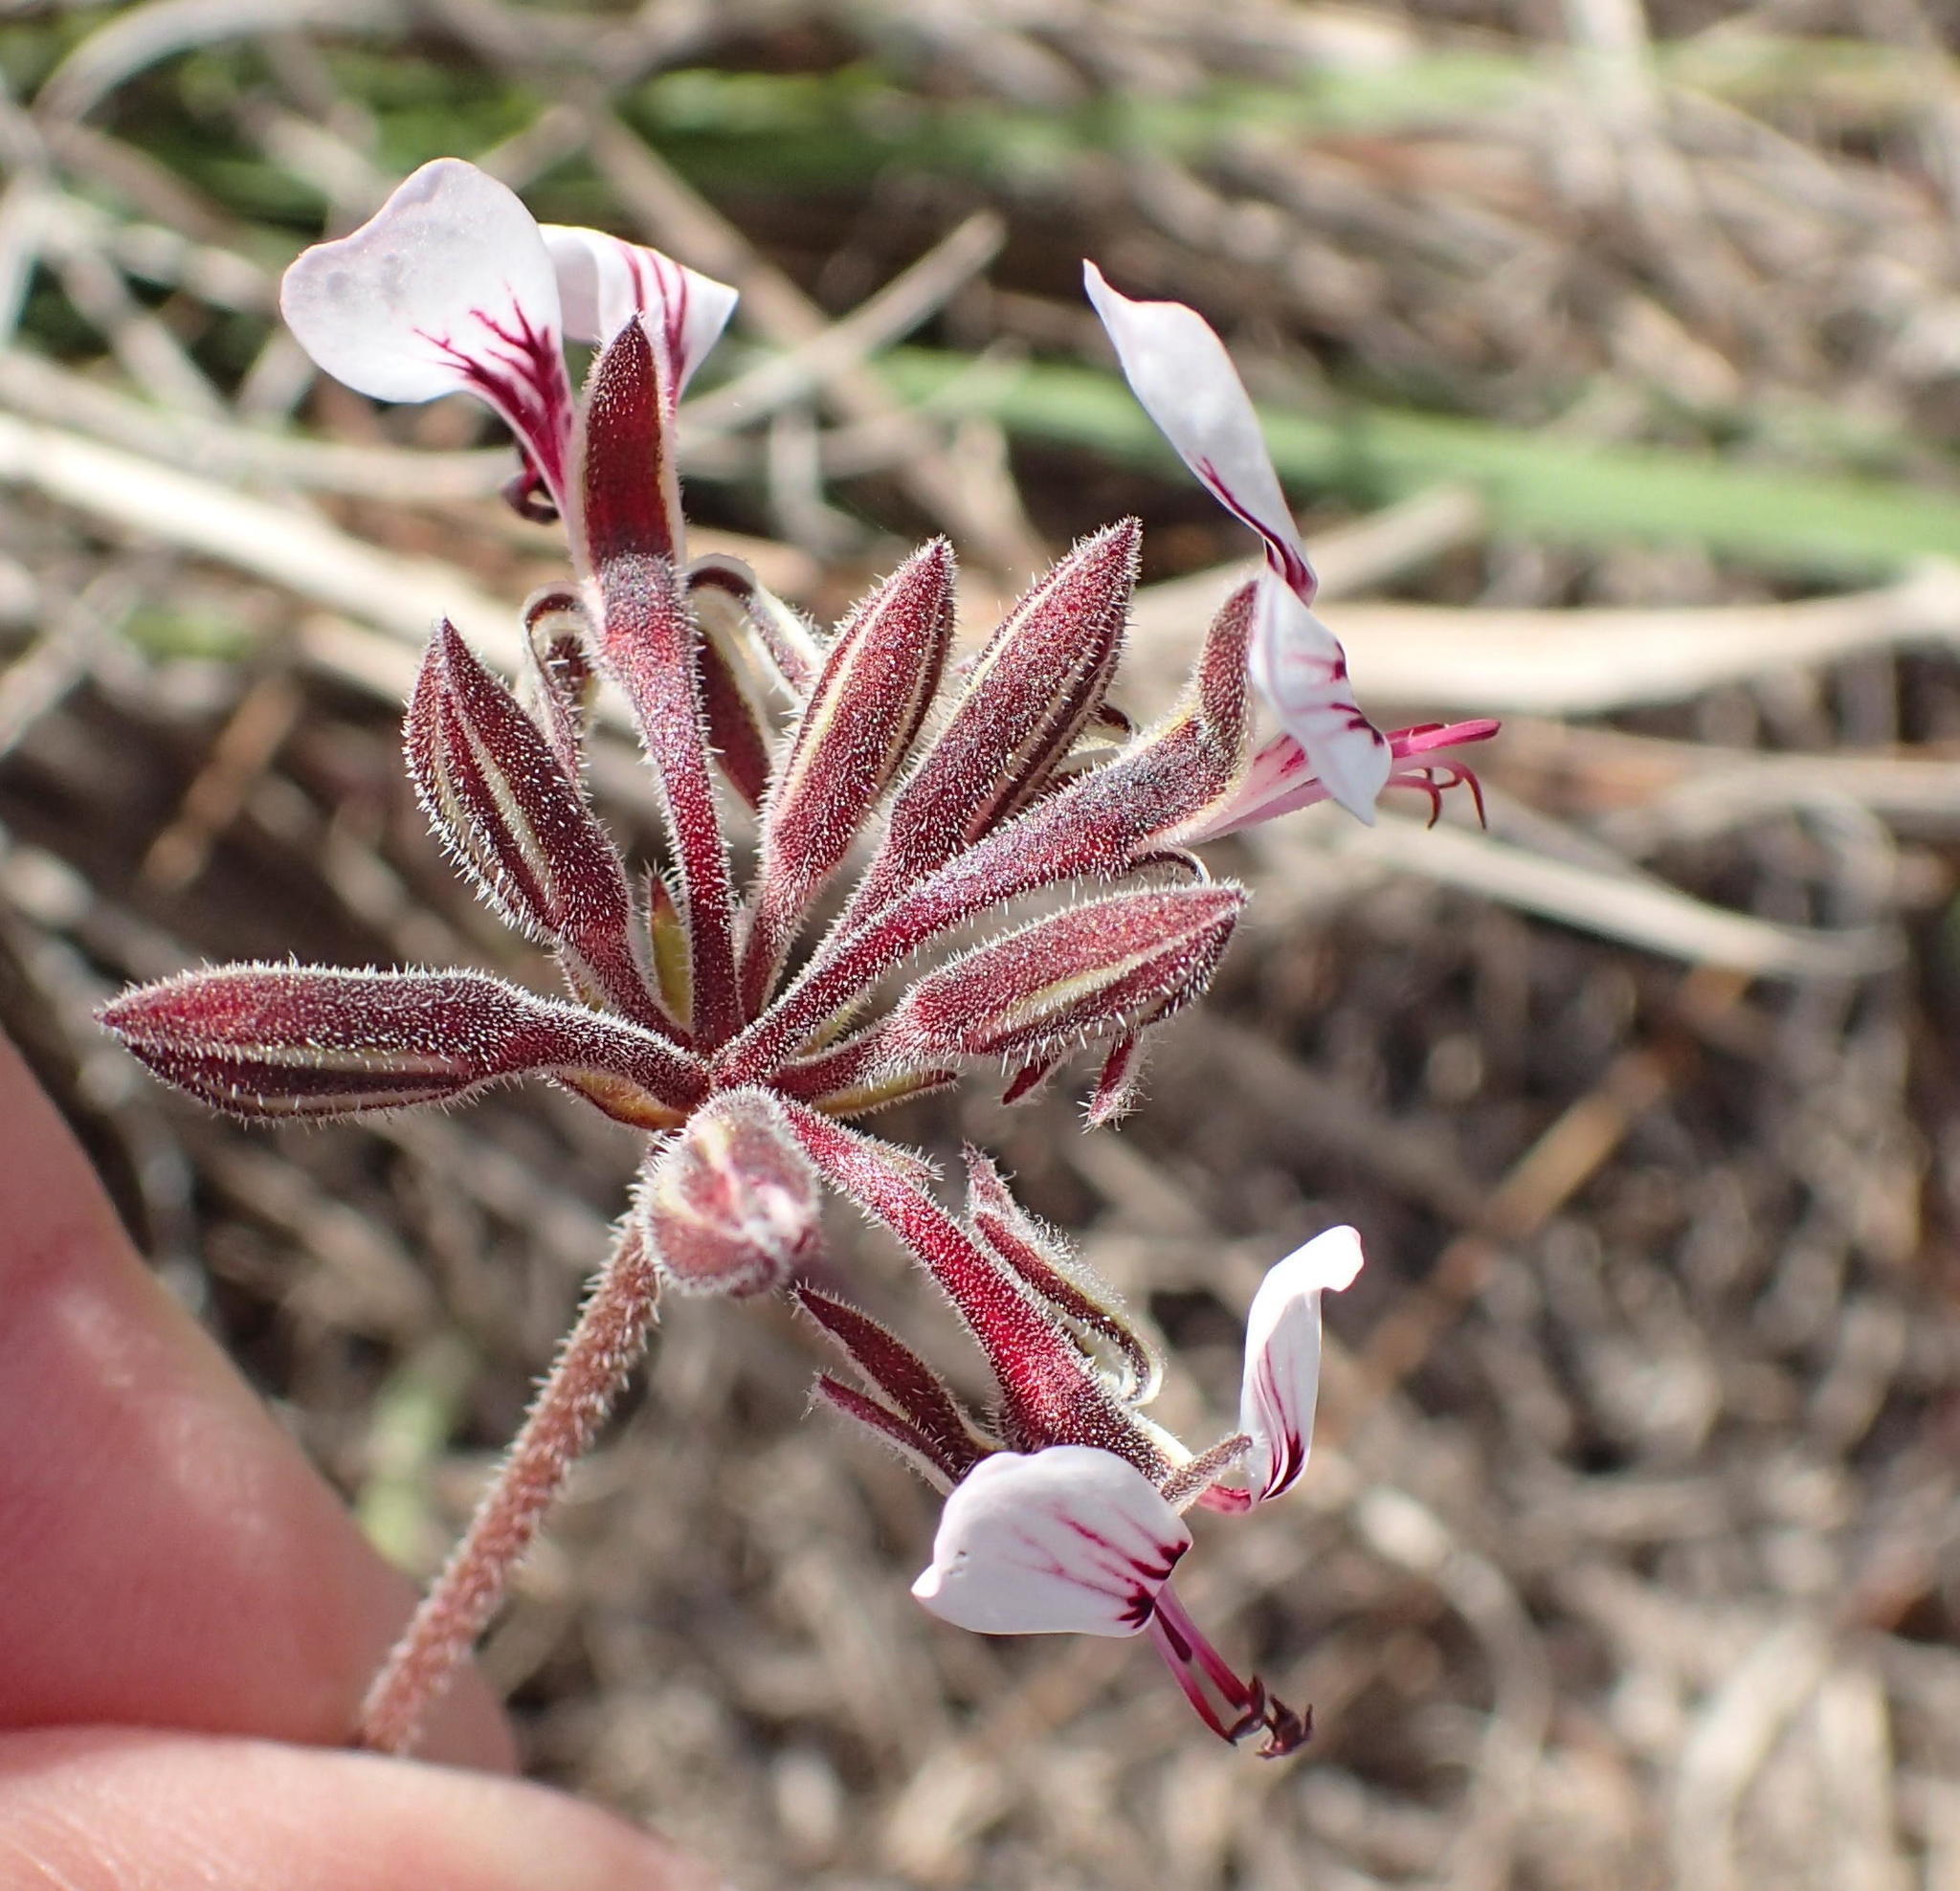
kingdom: Plantae
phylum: Tracheophyta
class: Magnoliopsida
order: Geraniales
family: Geraniaceae
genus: Pelargonium
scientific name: Pelargonium dipetalum
